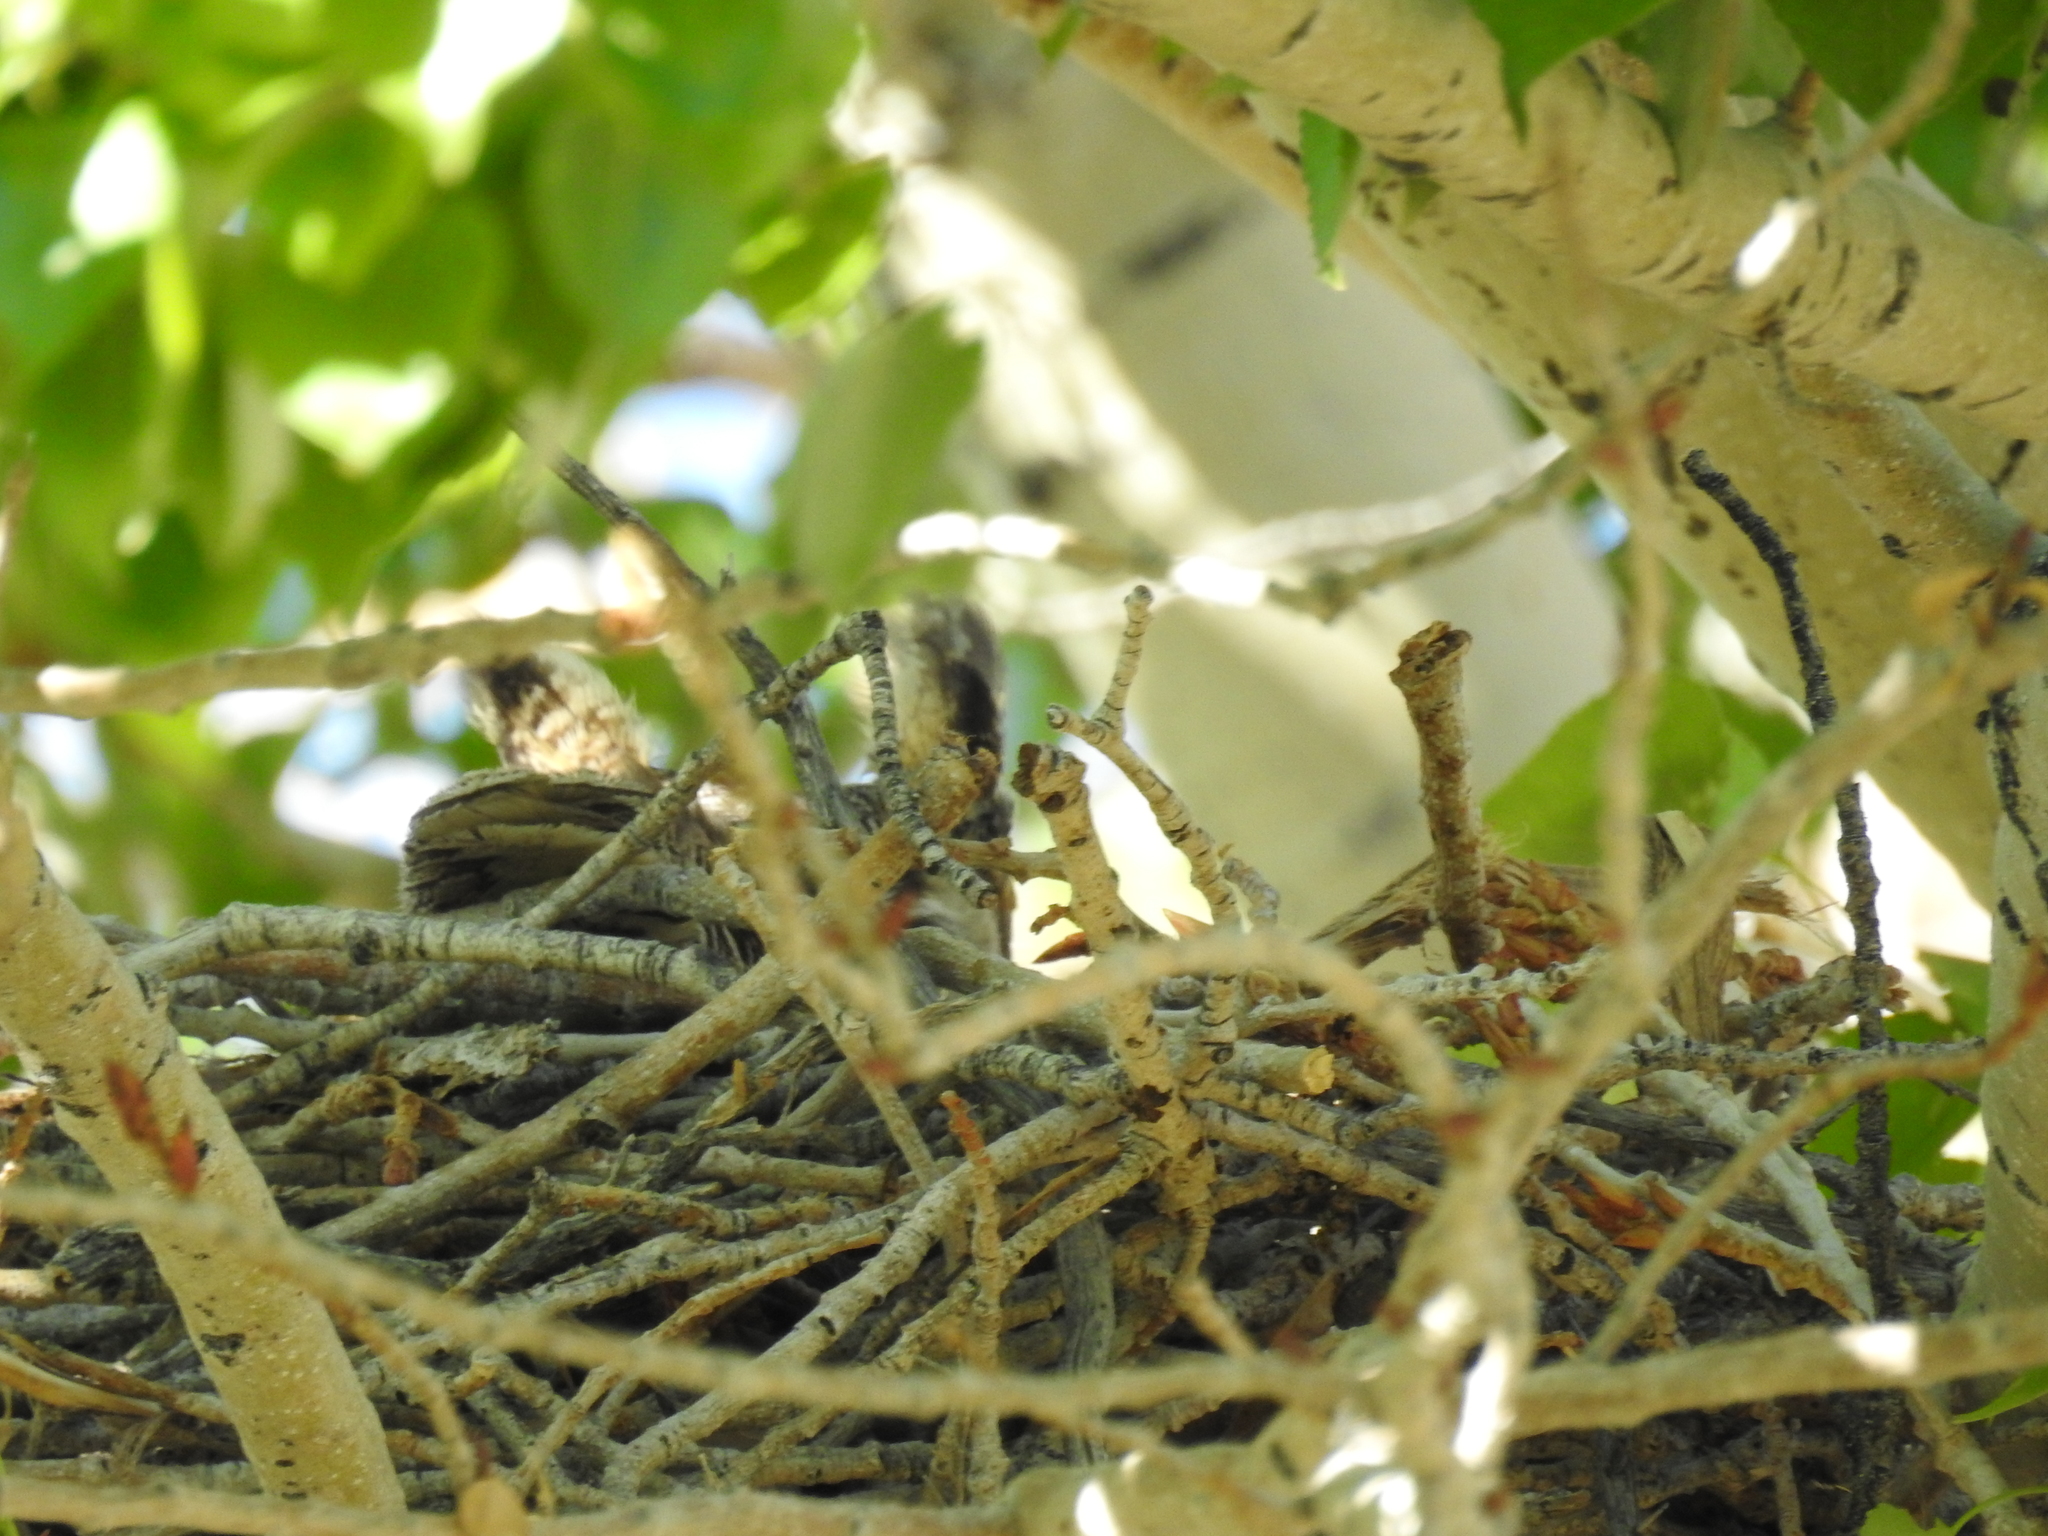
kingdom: Animalia
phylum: Chordata
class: Aves
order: Strigiformes
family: Strigidae
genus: Bubo
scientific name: Bubo virginianus
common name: Great horned owl
